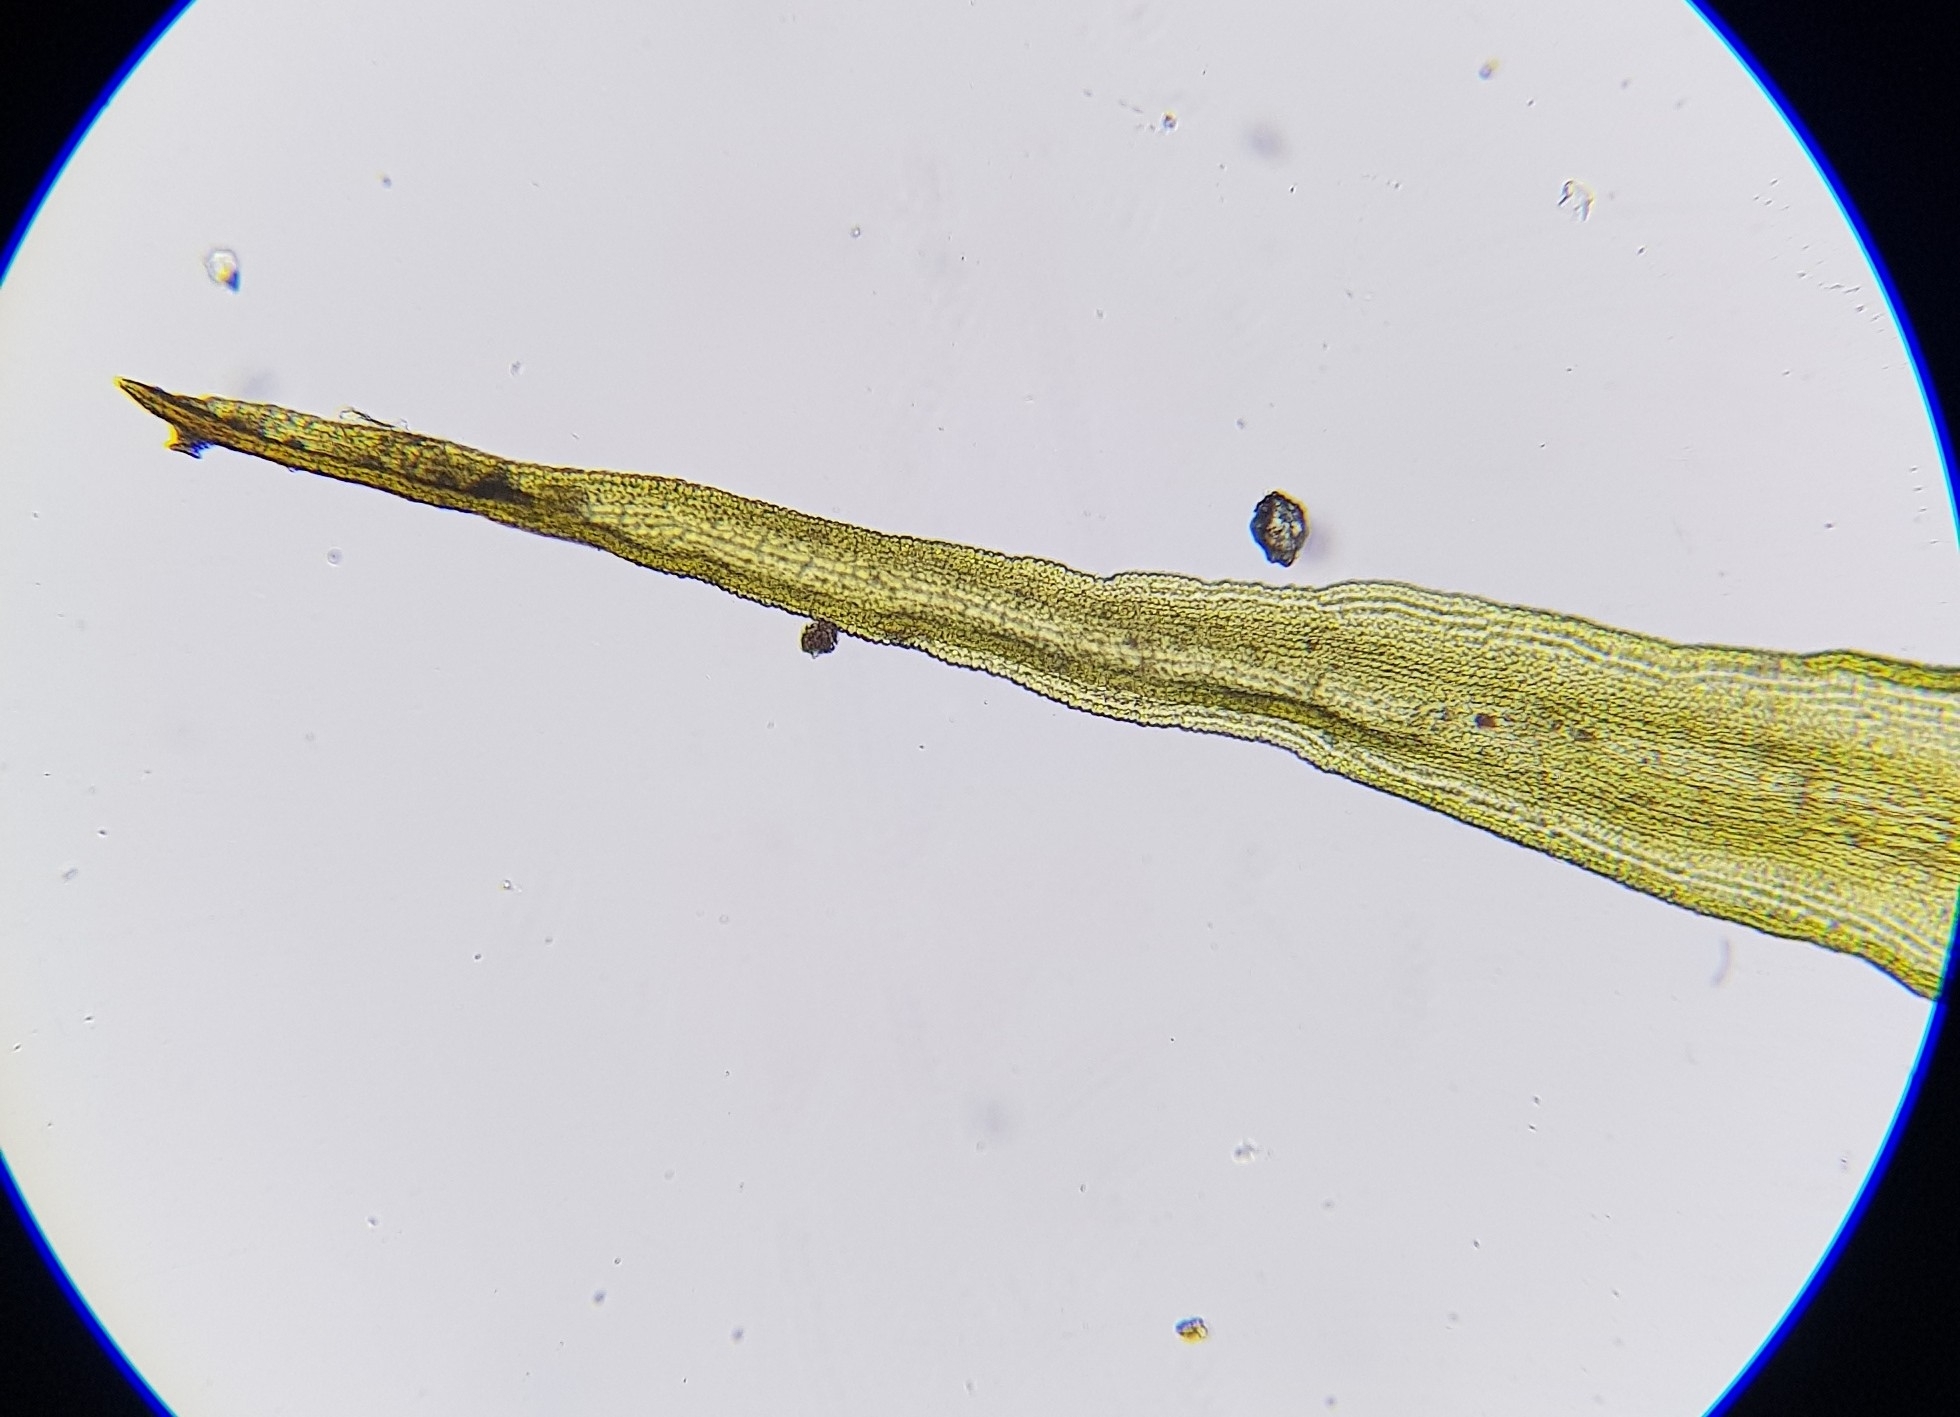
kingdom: Plantae
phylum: Bryophyta
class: Bryopsida
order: Grimmiales
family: Grimmiaceae
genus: Dilutineuron
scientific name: Dilutineuron fasciculare
